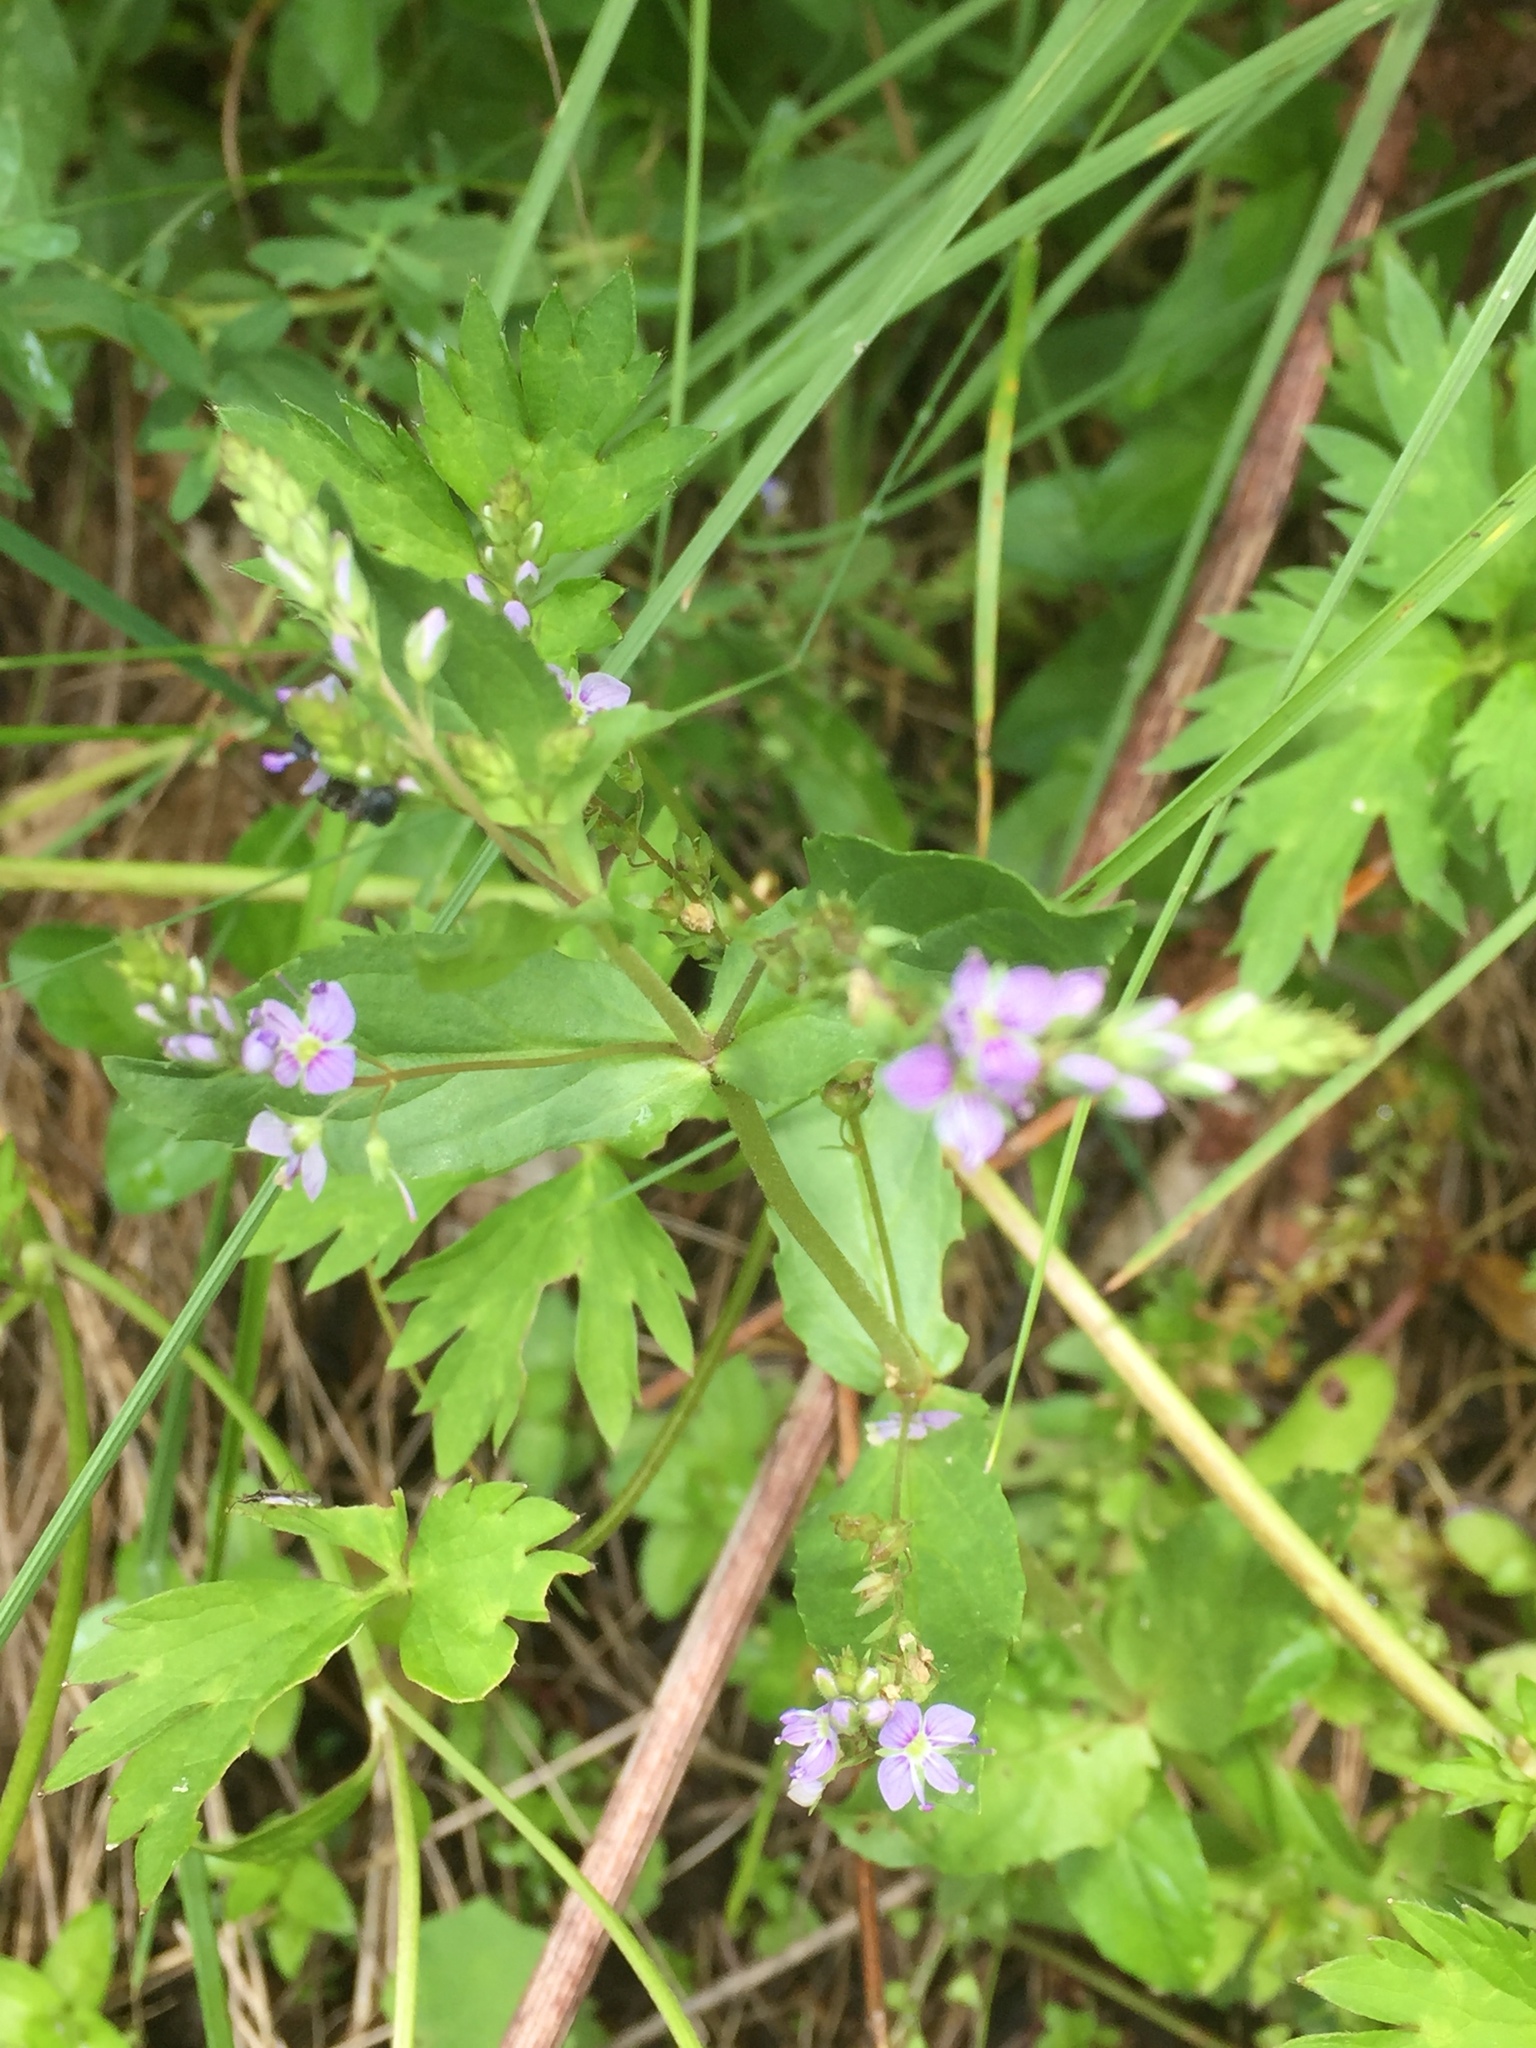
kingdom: Plantae
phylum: Tracheophyta
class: Magnoliopsida
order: Lamiales
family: Plantaginaceae
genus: Veronica
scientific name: Veronica anagallis-aquatica
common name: Water speedwell
